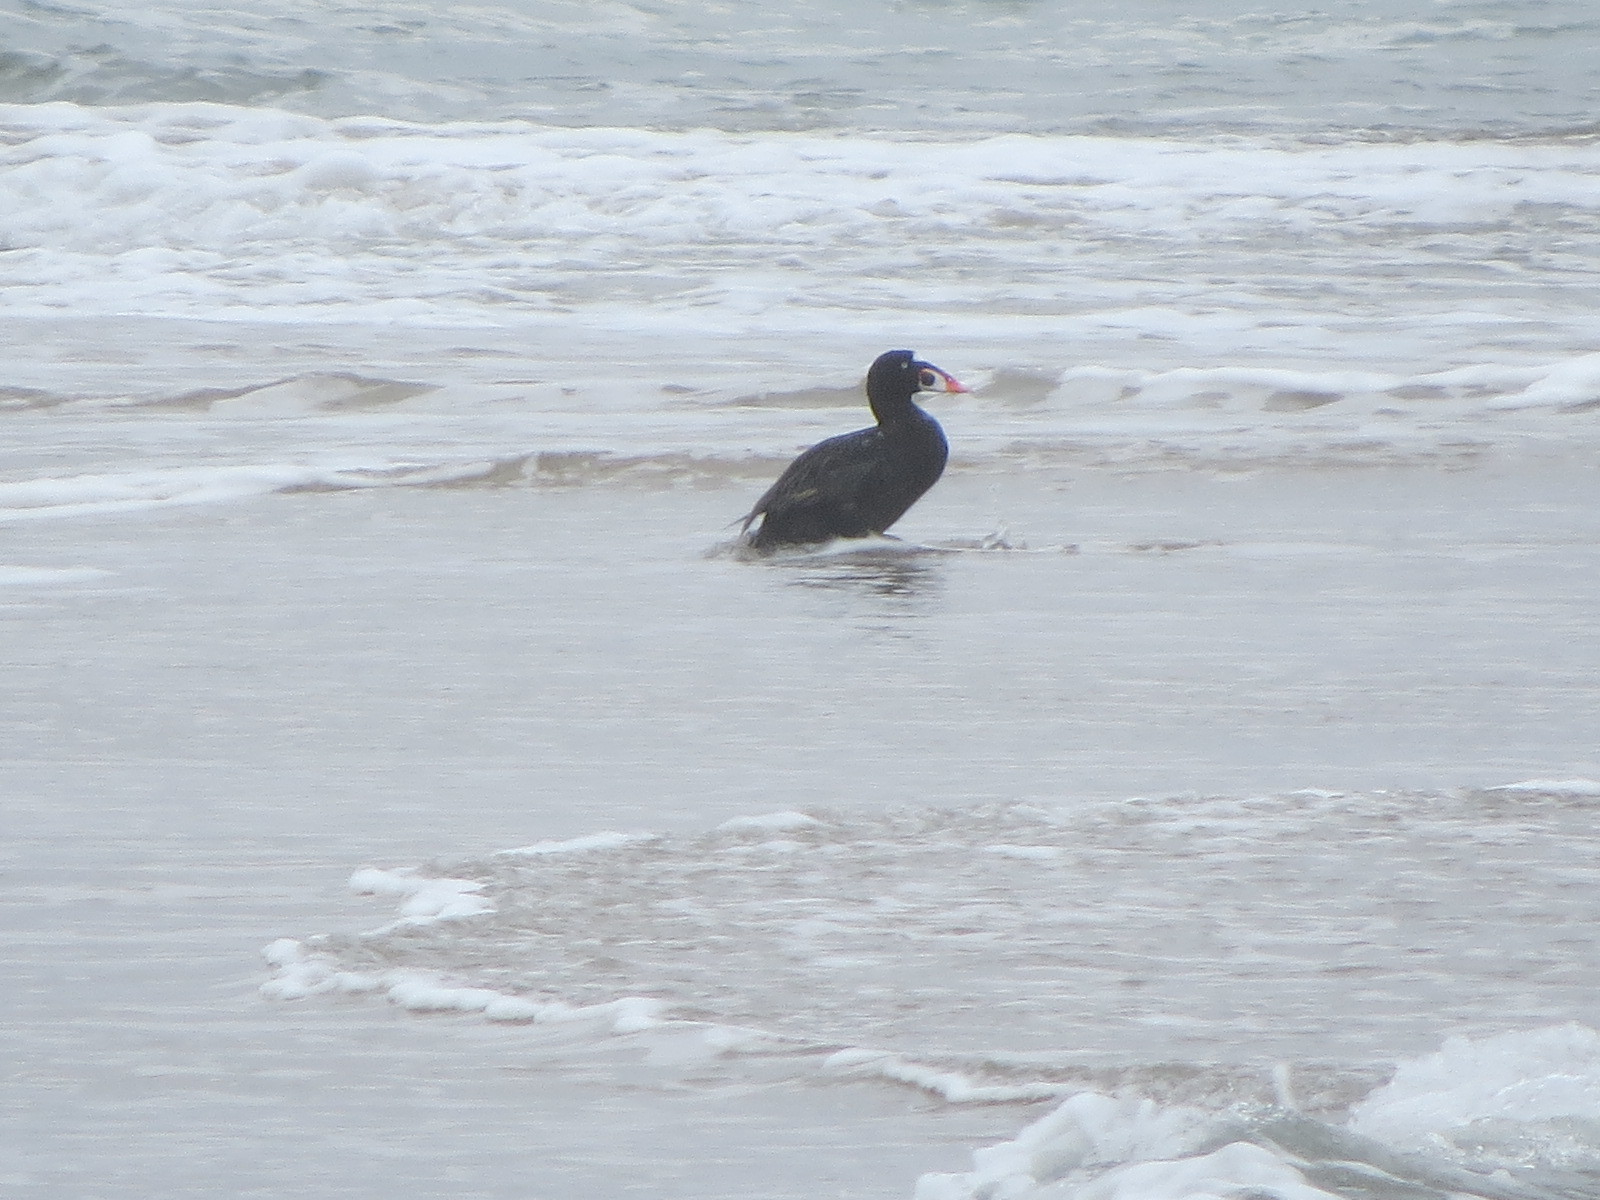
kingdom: Animalia
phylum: Chordata
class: Aves
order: Anseriformes
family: Anatidae
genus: Melanitta
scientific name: Melanitta perspicillata
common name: Surf scoter
